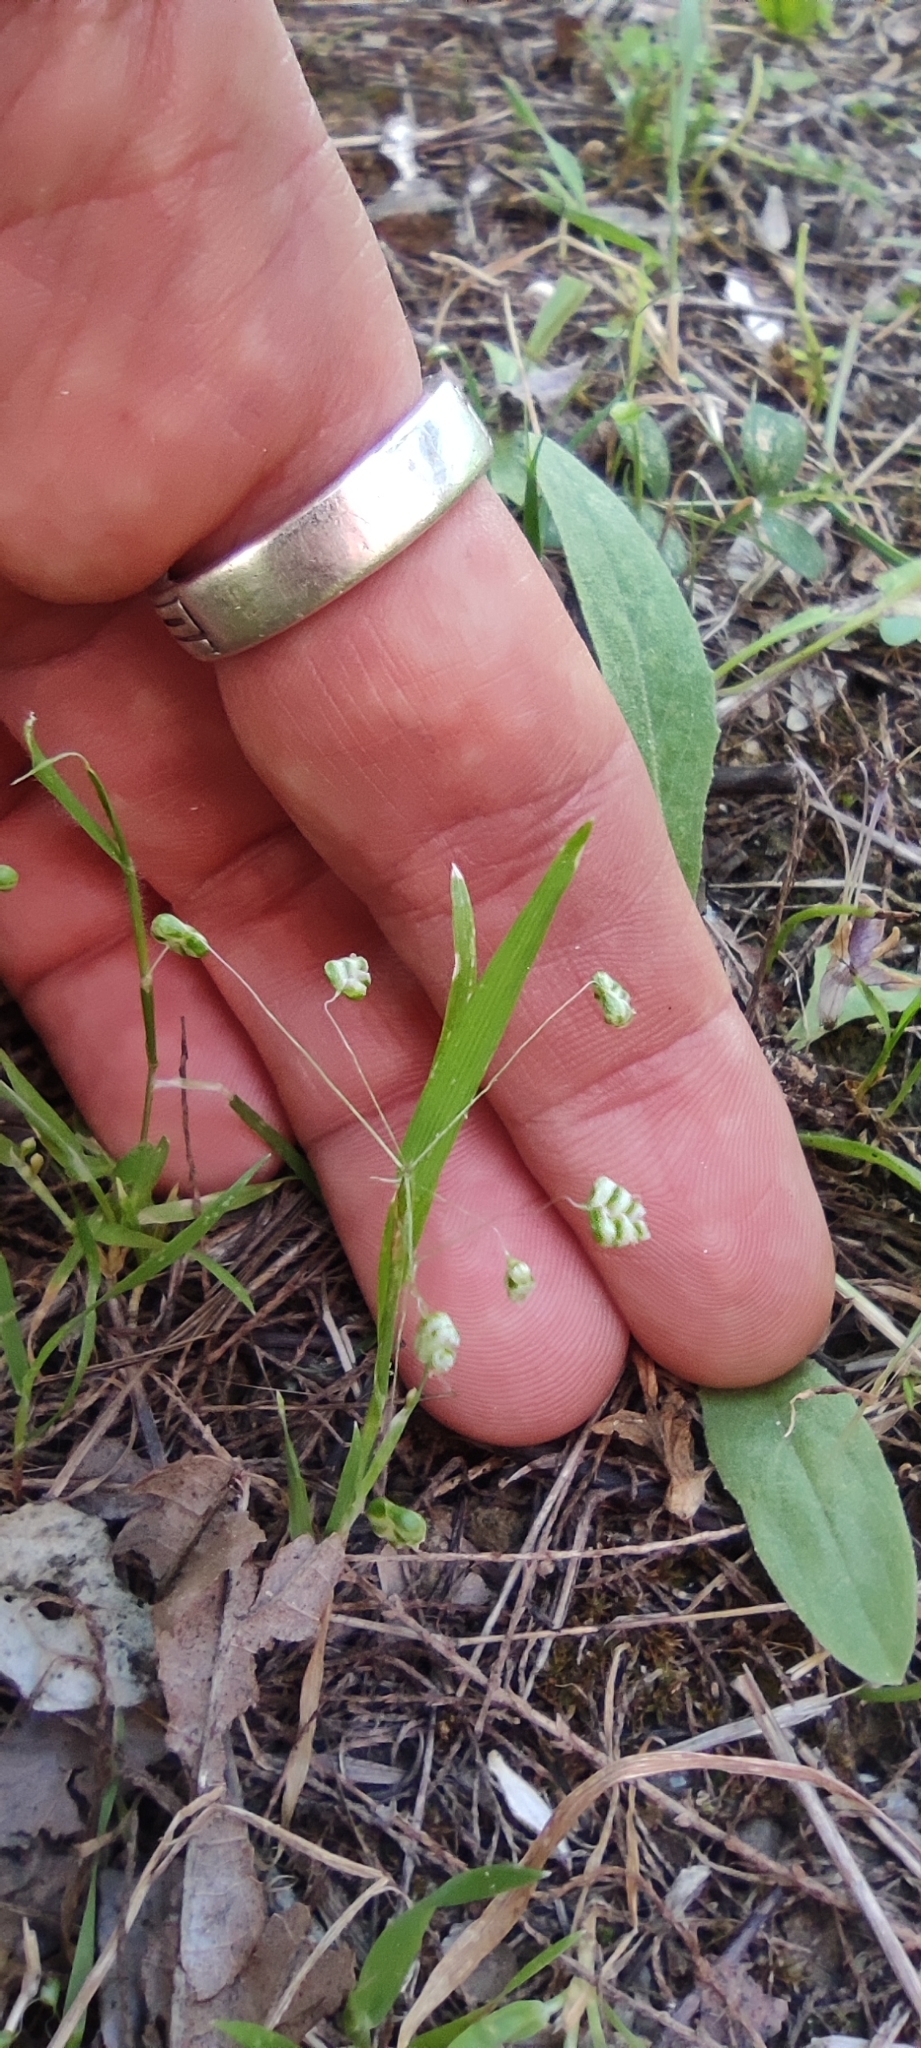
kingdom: Plantae
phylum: Tracheophyta
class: Liliopsida
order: Poales
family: Poaceae
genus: Briza
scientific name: Briza minor
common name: Lesser quaking-grass
